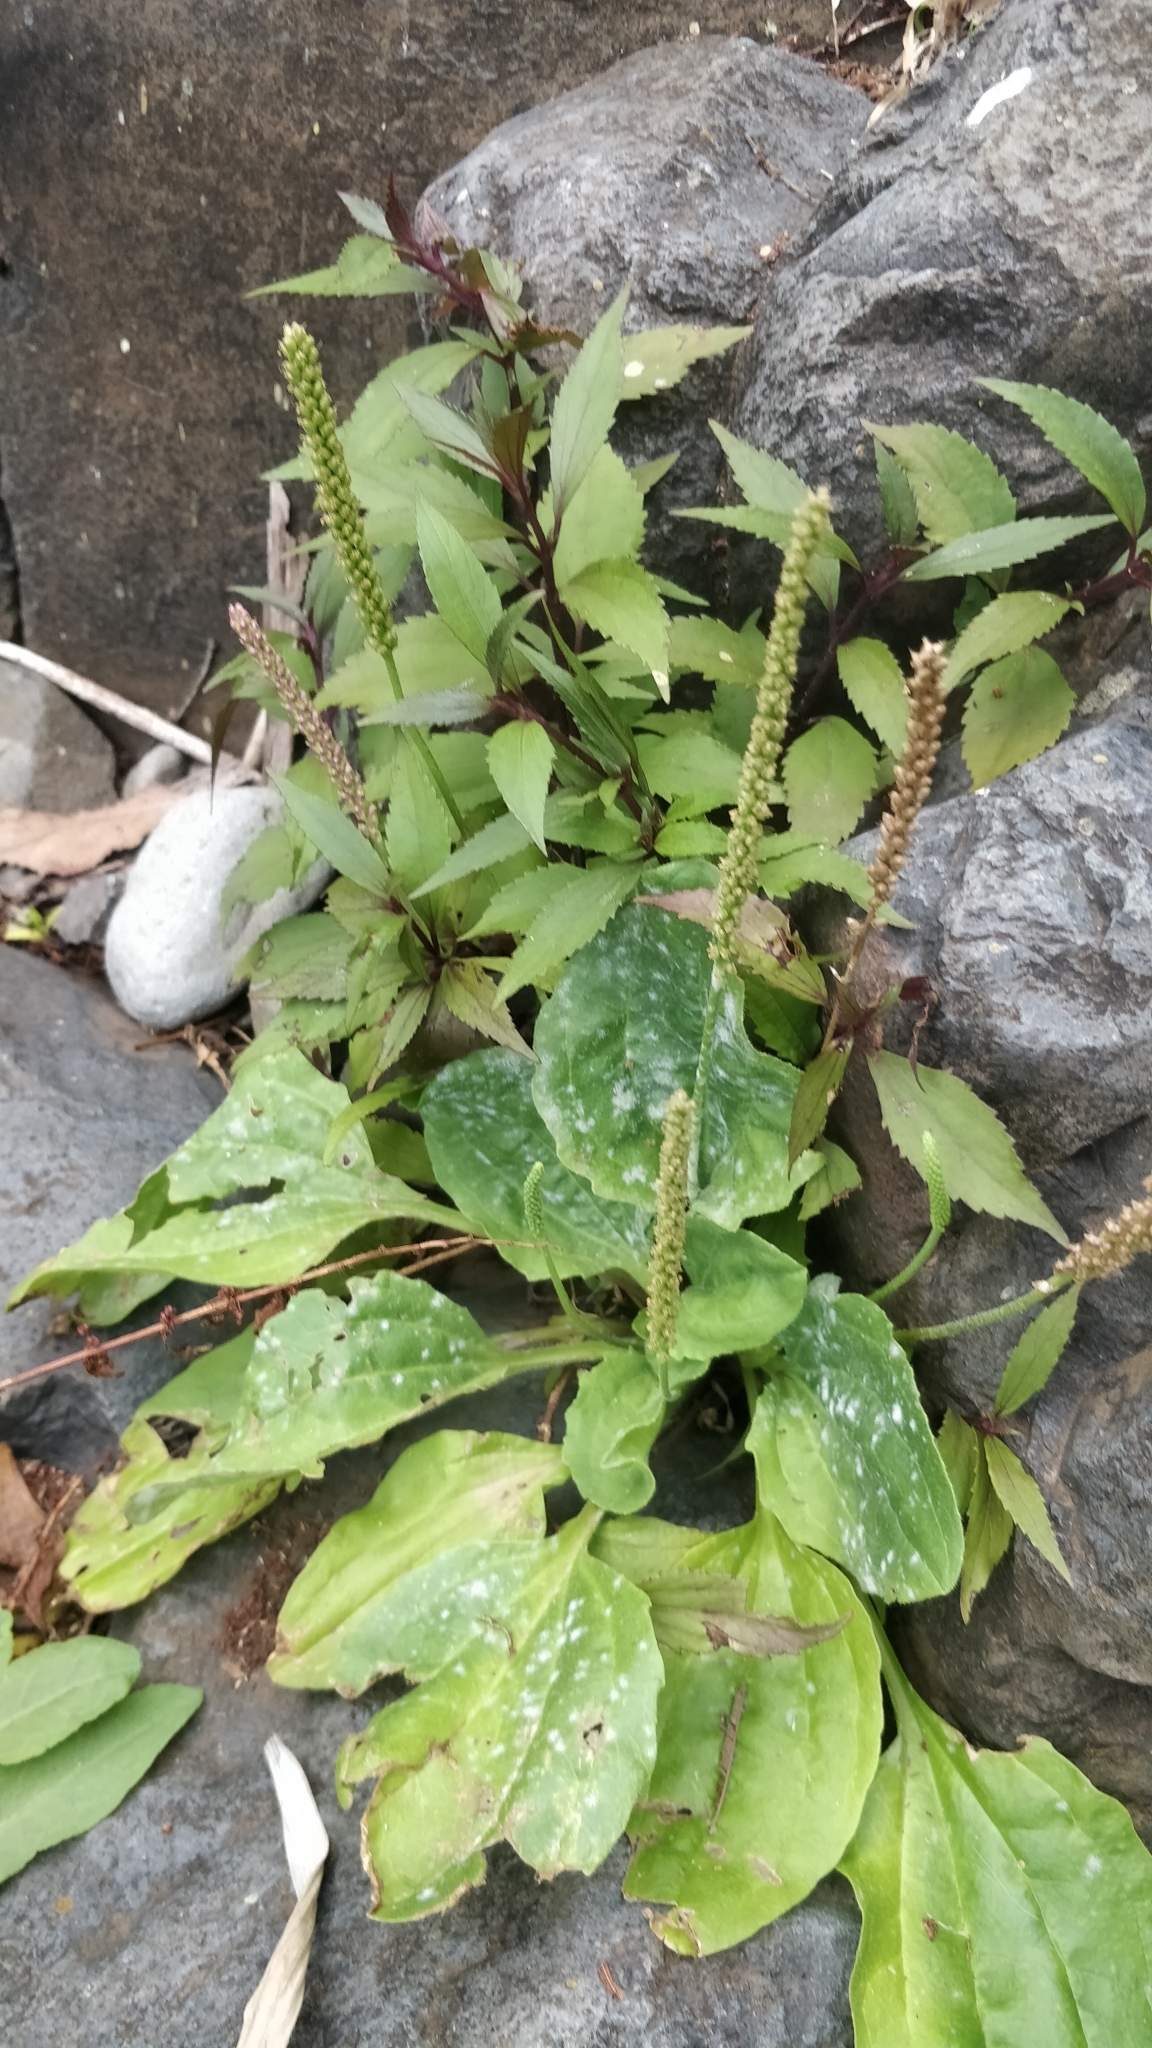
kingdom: Plantae
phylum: Tracheophyta
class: Magnoliopsida
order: Lamiales
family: Plantaginaceae
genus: Plantago
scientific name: Plantago major
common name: Common plantain
